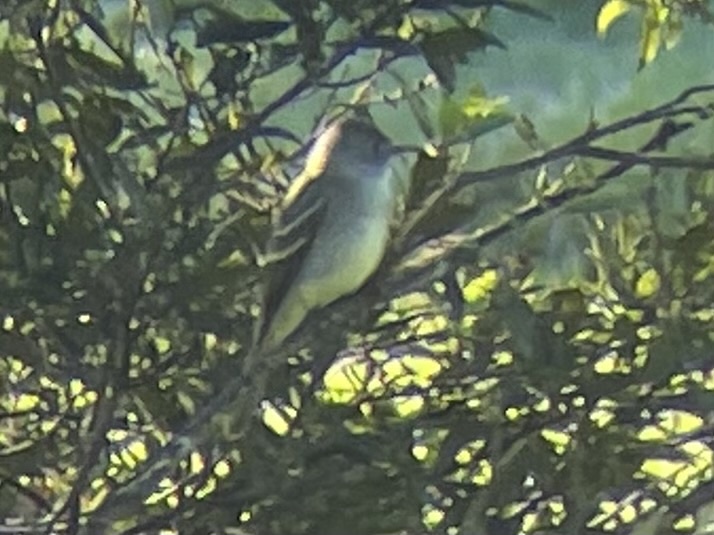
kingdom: Animalia
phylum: Chordata
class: Aves
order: Passeriformes
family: Tyrannidae
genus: Contopus
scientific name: Contopus virens
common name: Eastern wood-pewee
